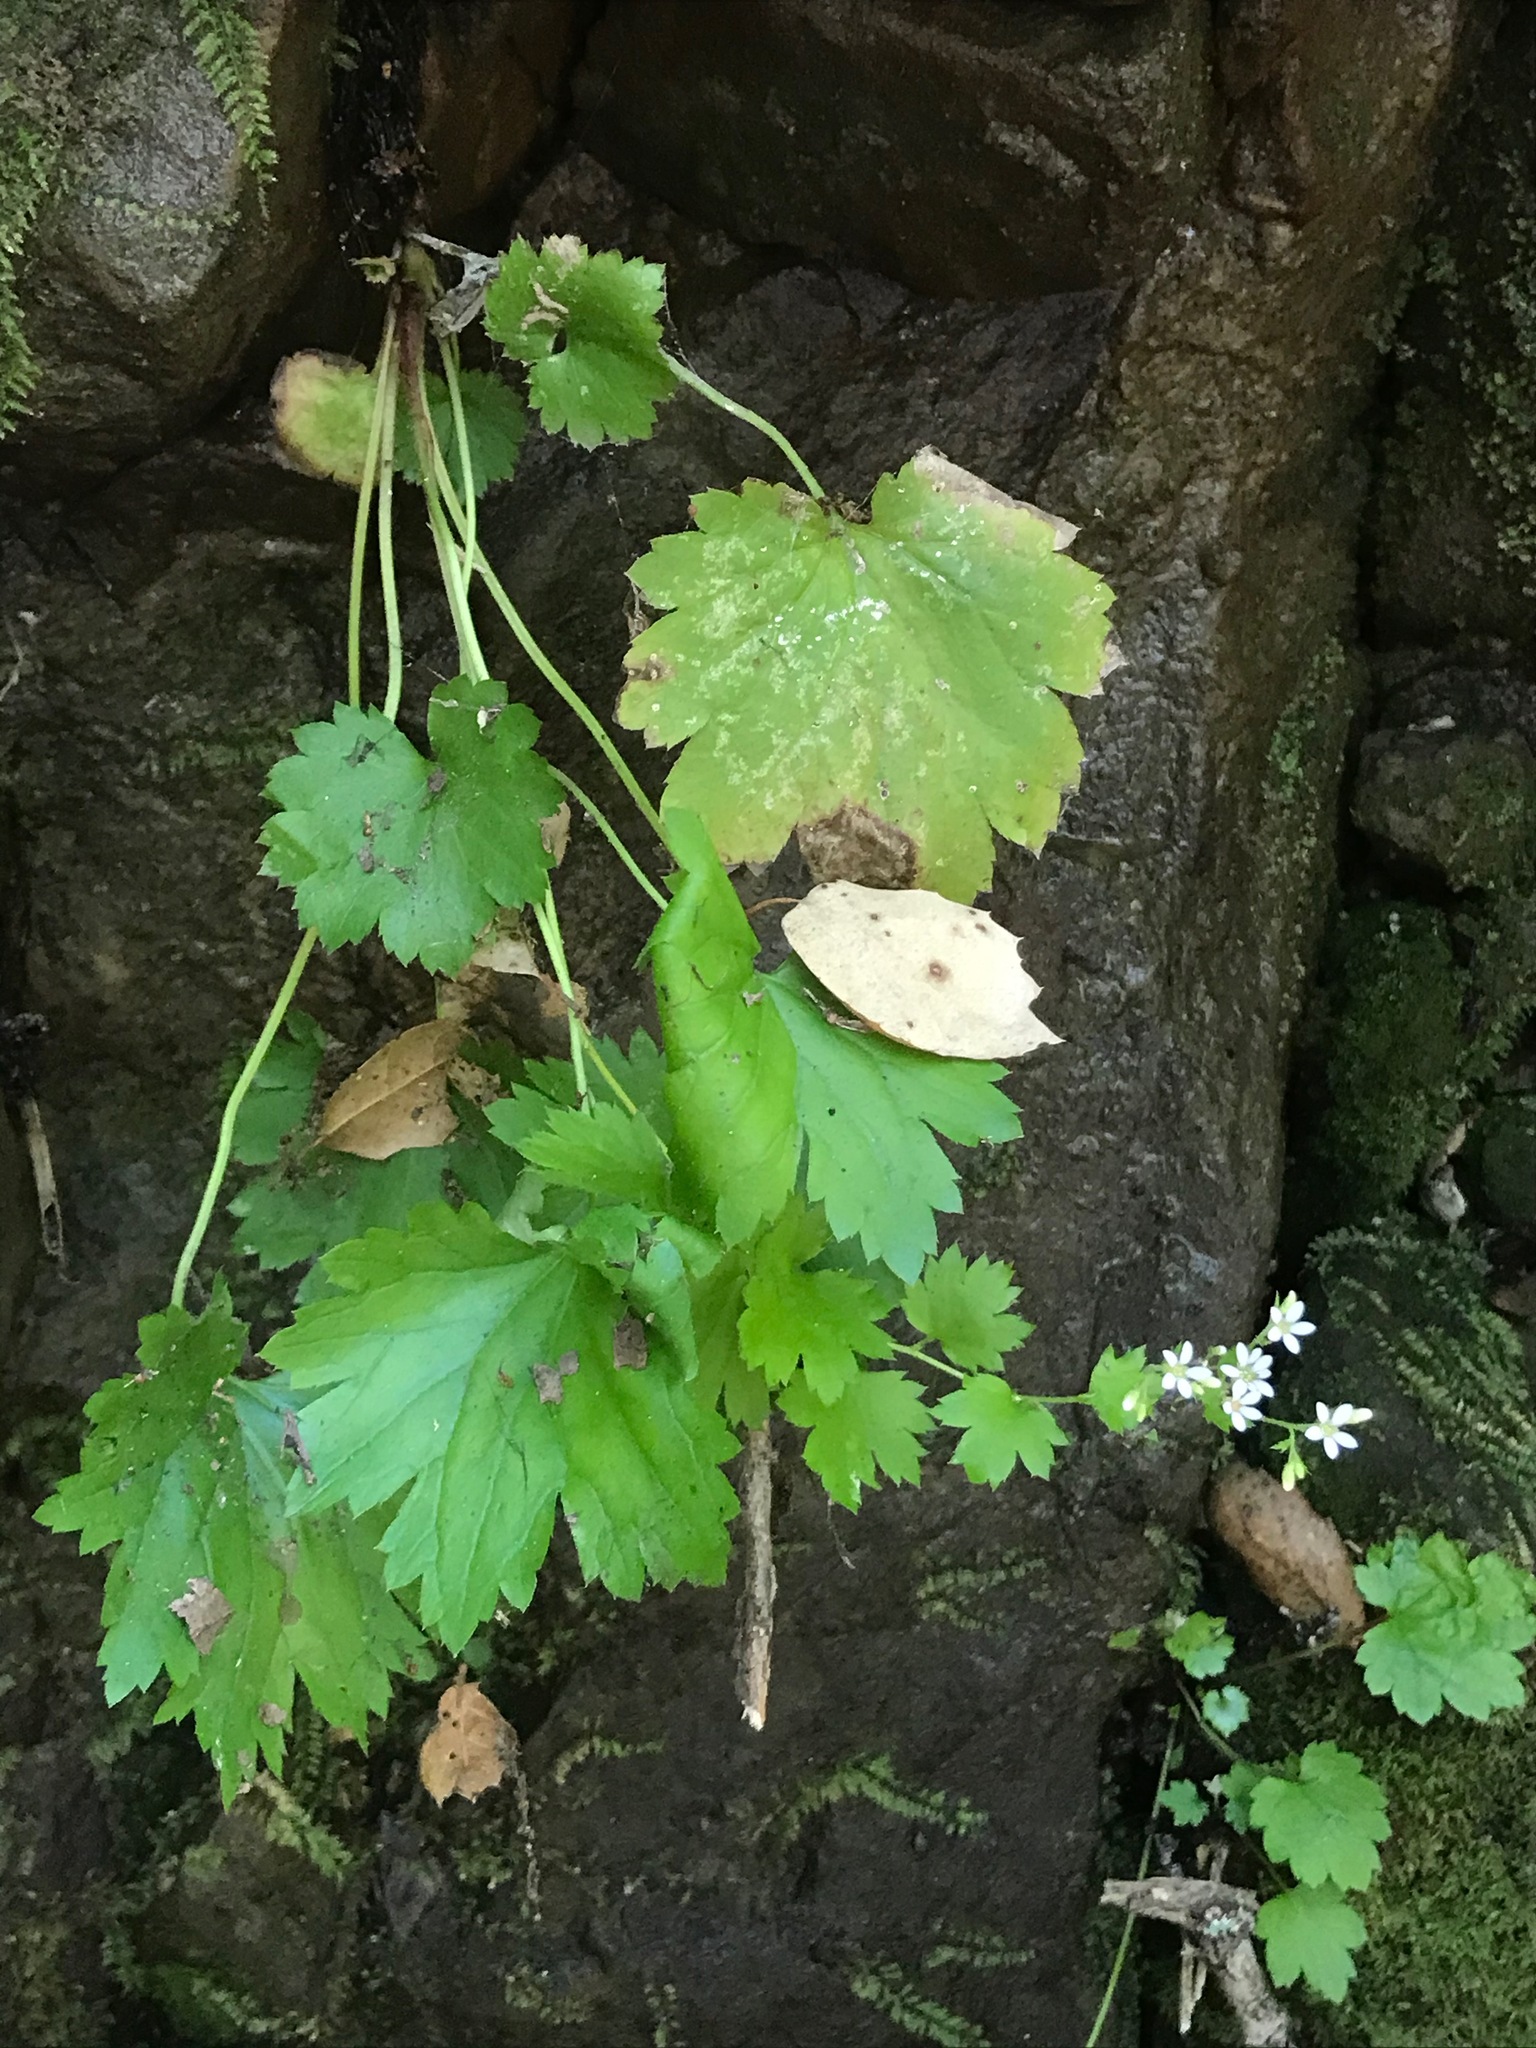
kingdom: Plantae
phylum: Tracheophyta
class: Magnoliopsida
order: Saxifragales
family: Saxifragaceae
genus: Boykinia
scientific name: Boykinia occidentalis
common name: Coast boykinia
